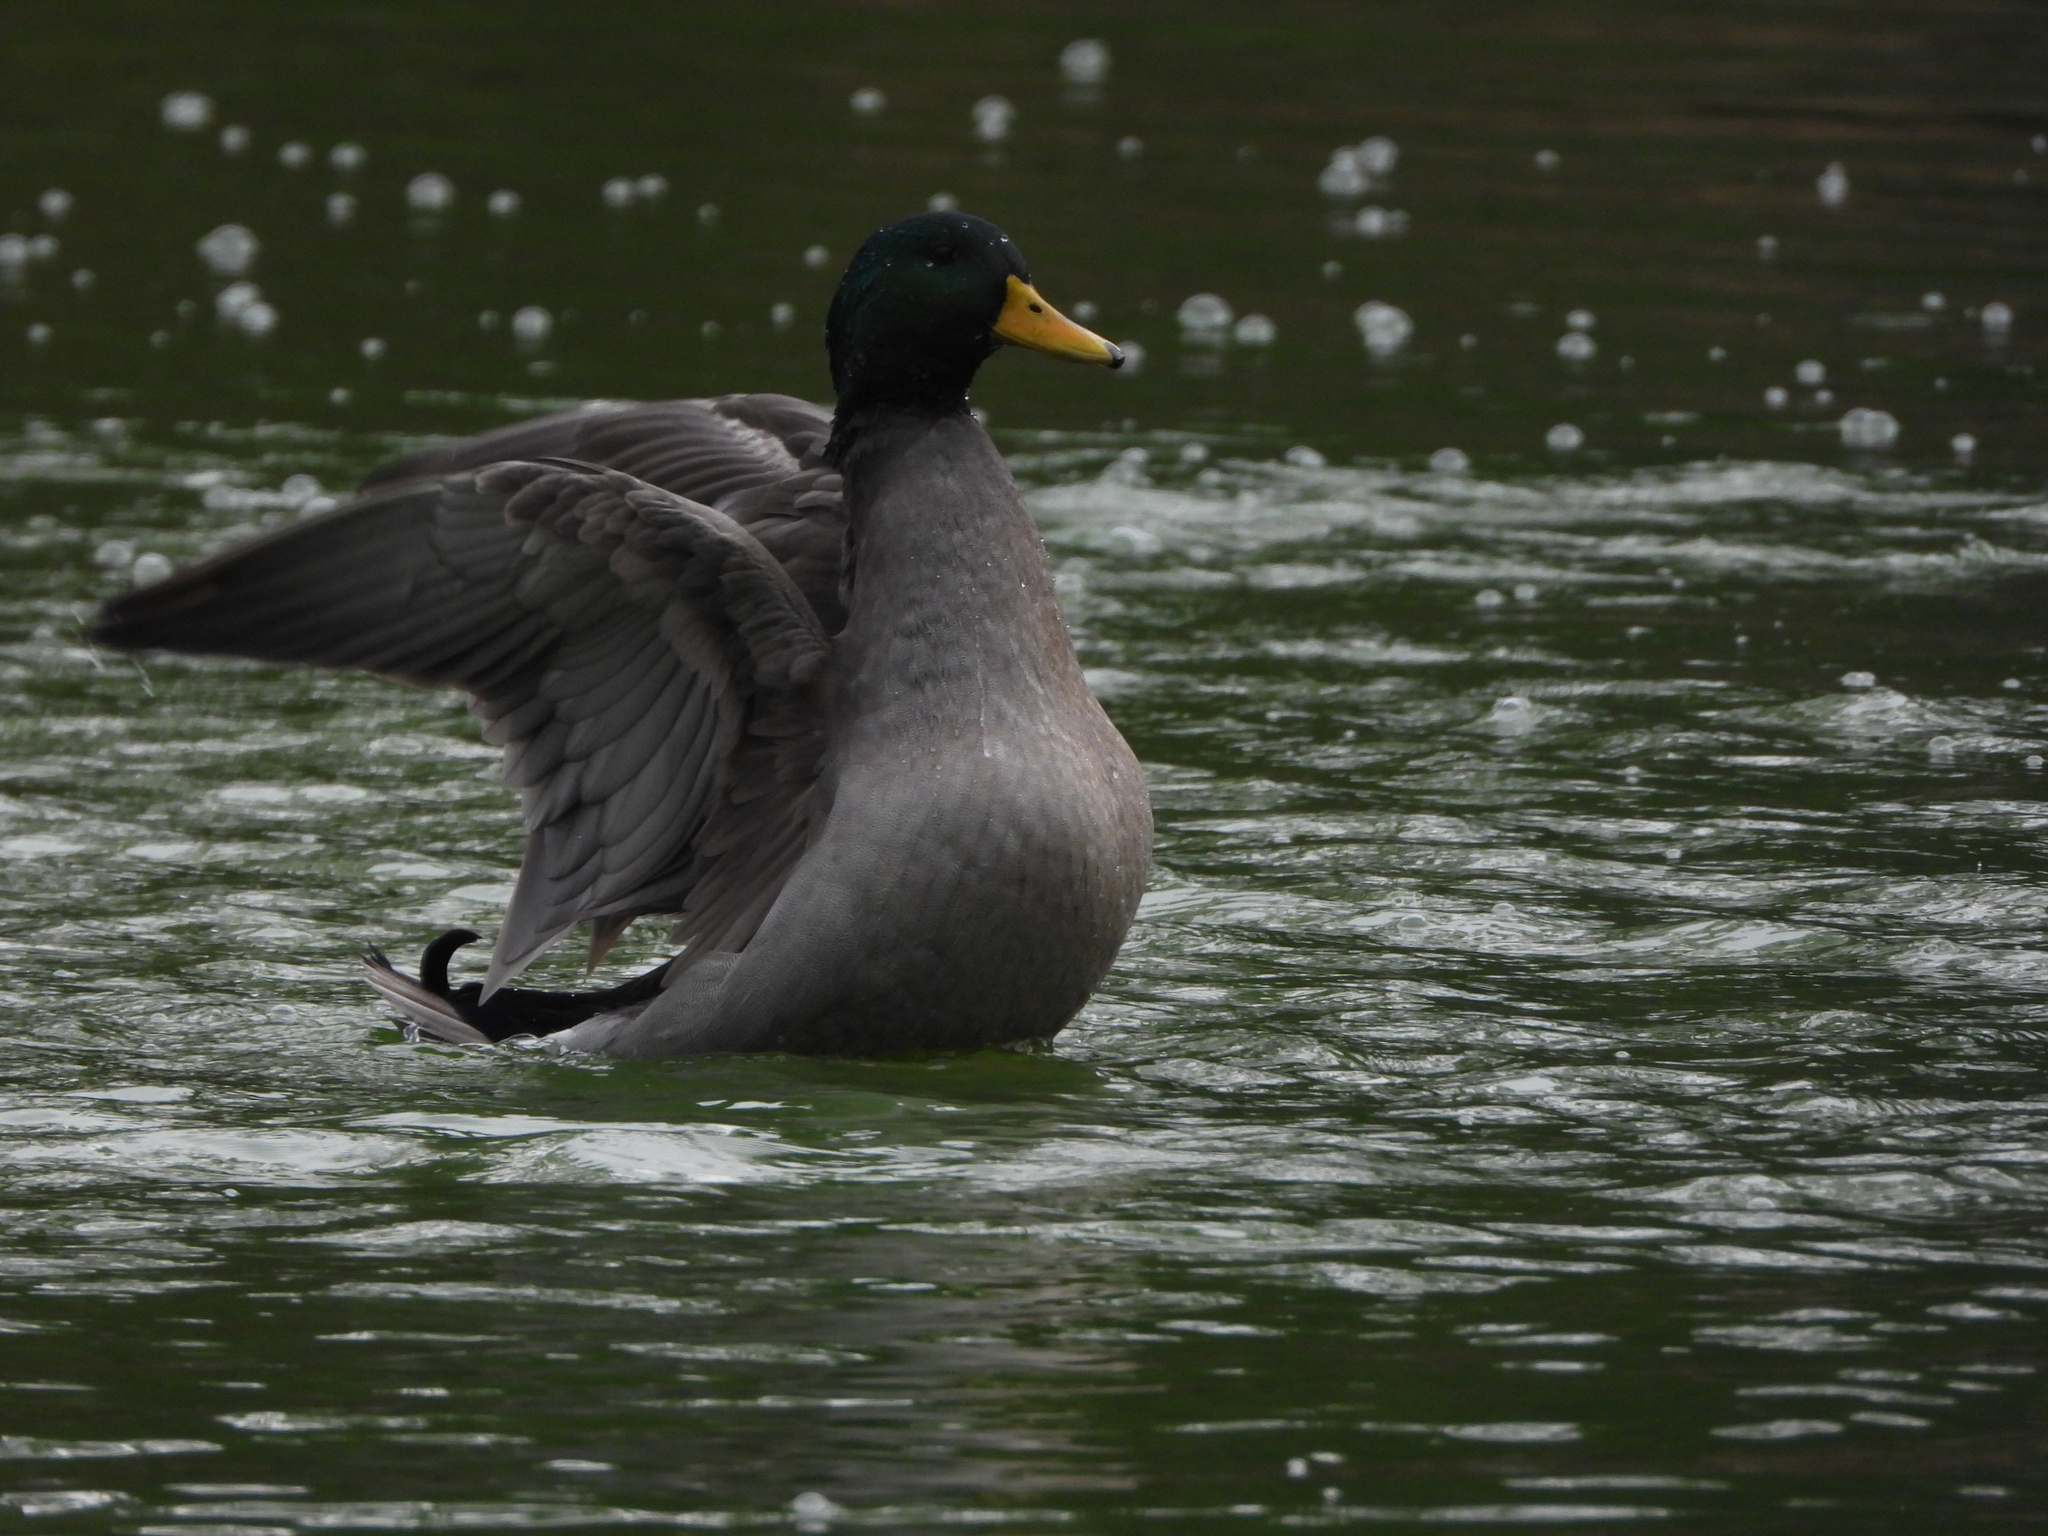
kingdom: Animalia
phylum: Chordata
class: Aves
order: Anseriformes
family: Anatidae
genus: Anas
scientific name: Anas platyrhynchos
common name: Mallard
